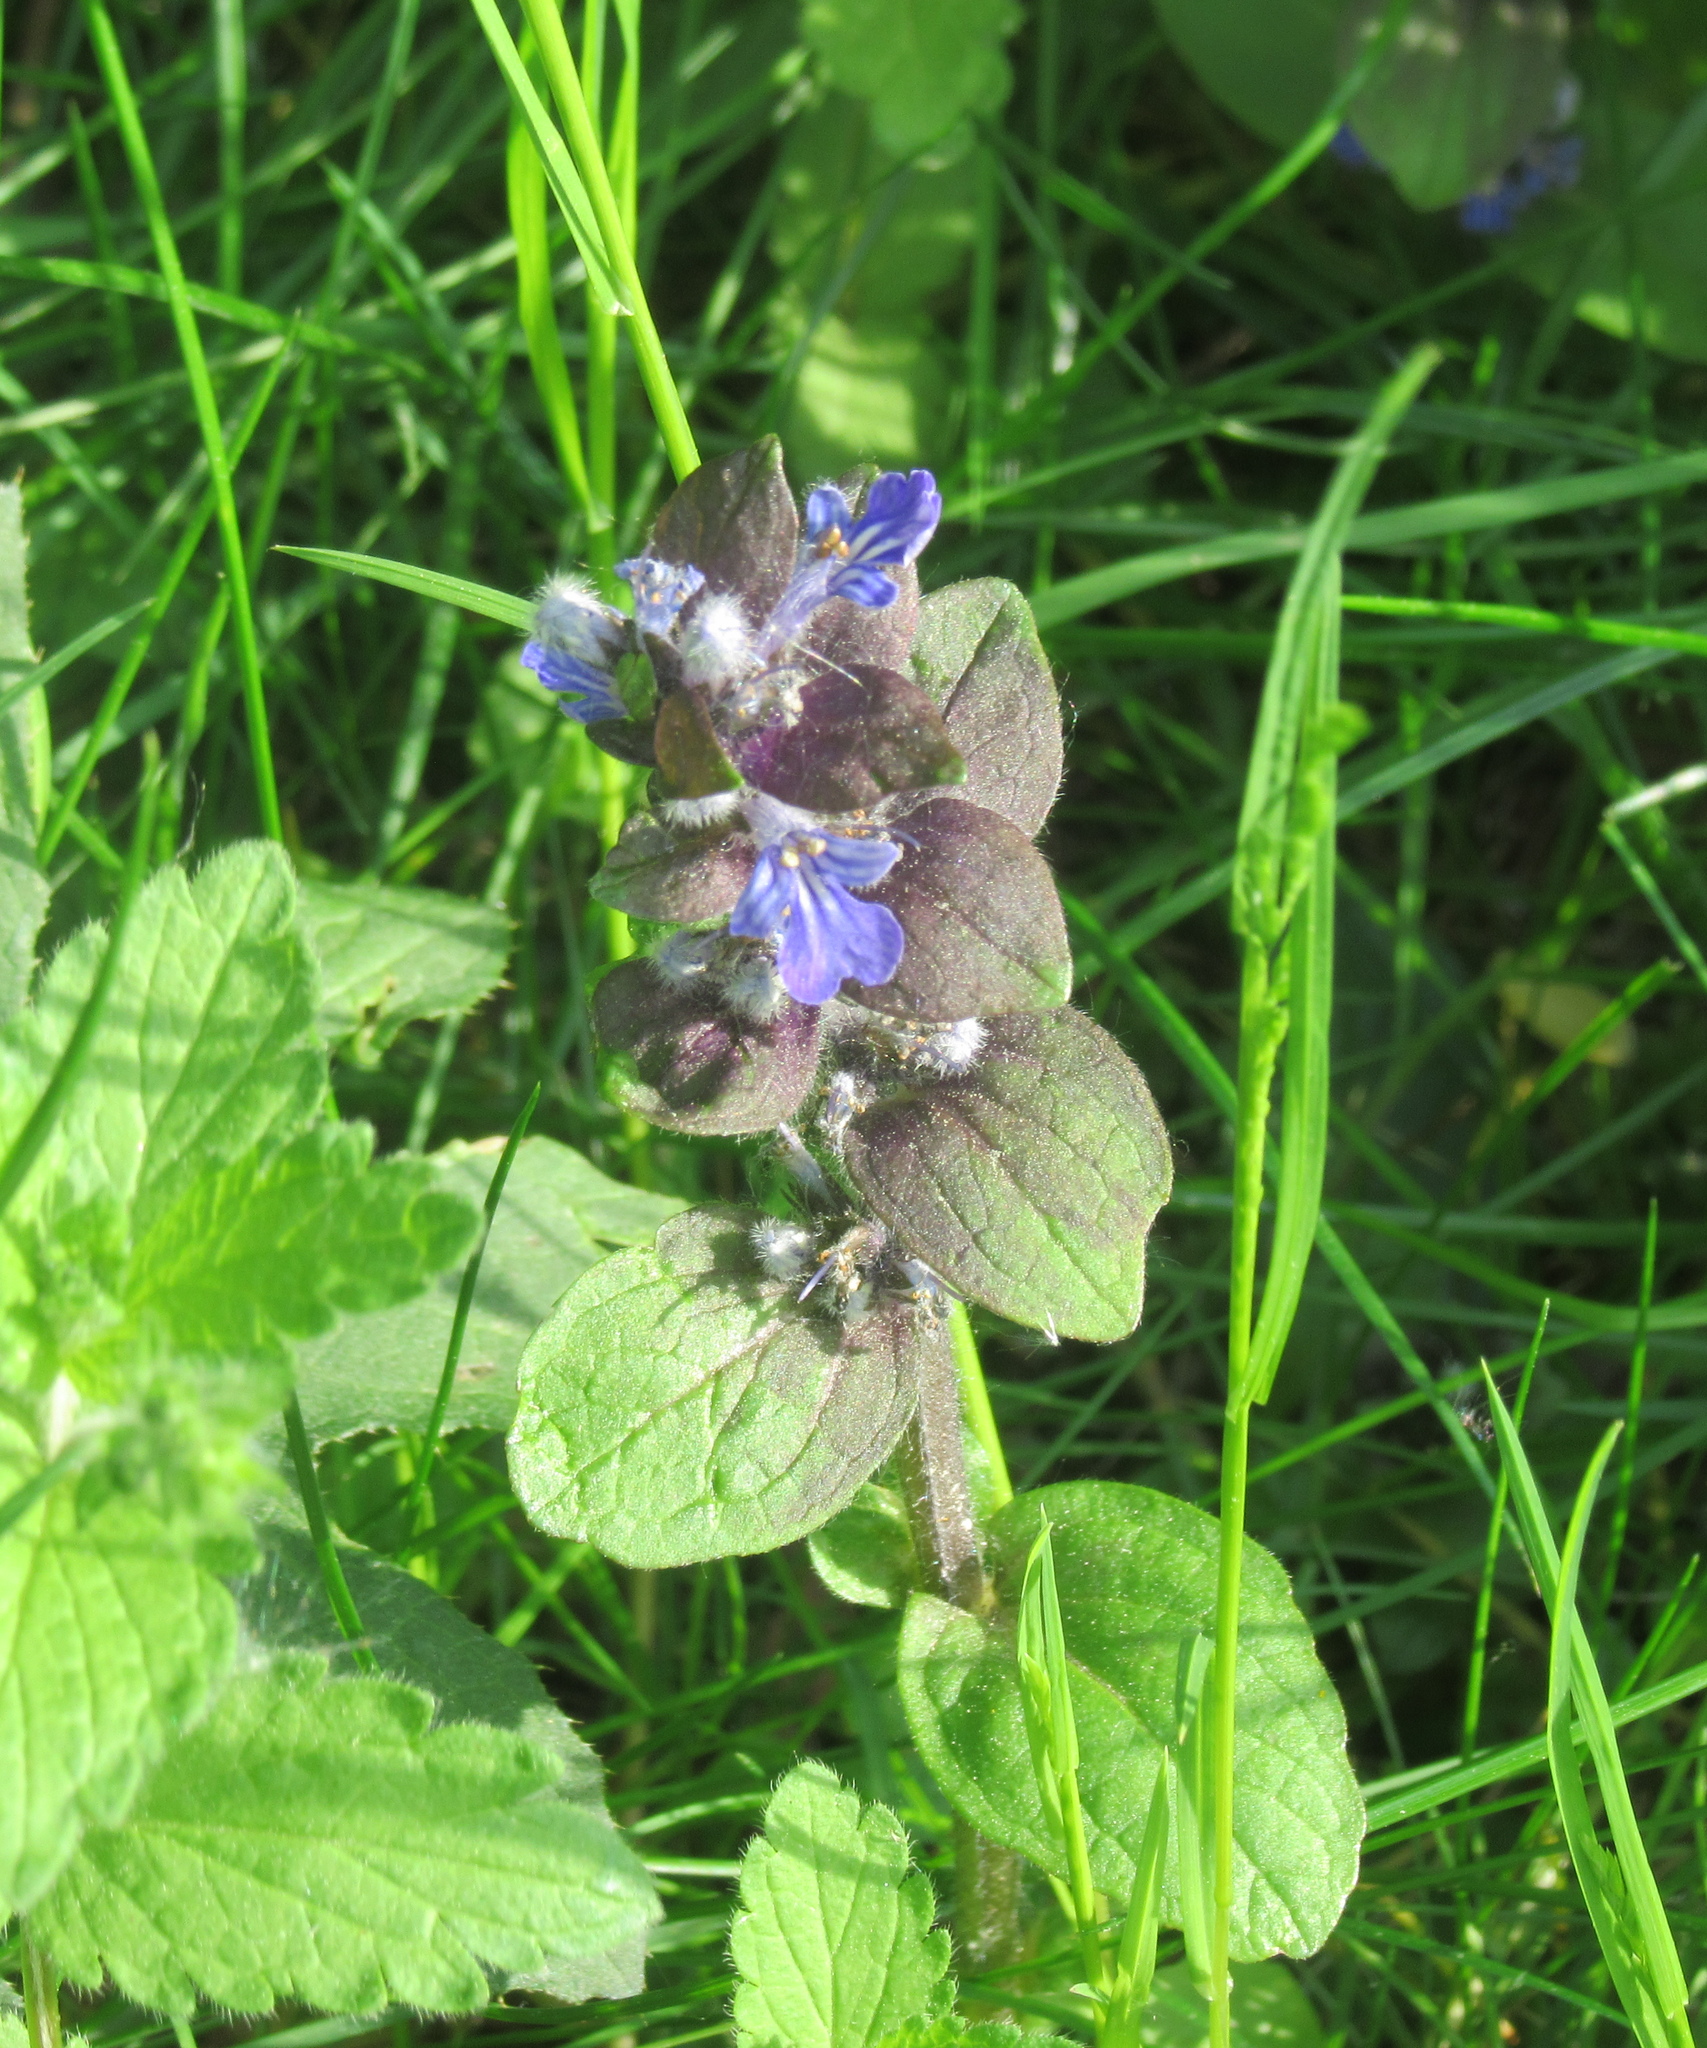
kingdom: Plantae
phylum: Tracheophyta
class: Magnoliopsida
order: Lamiales
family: Lamiaceae
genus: Ajuga
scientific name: Ajuga reptans
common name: Bugle
